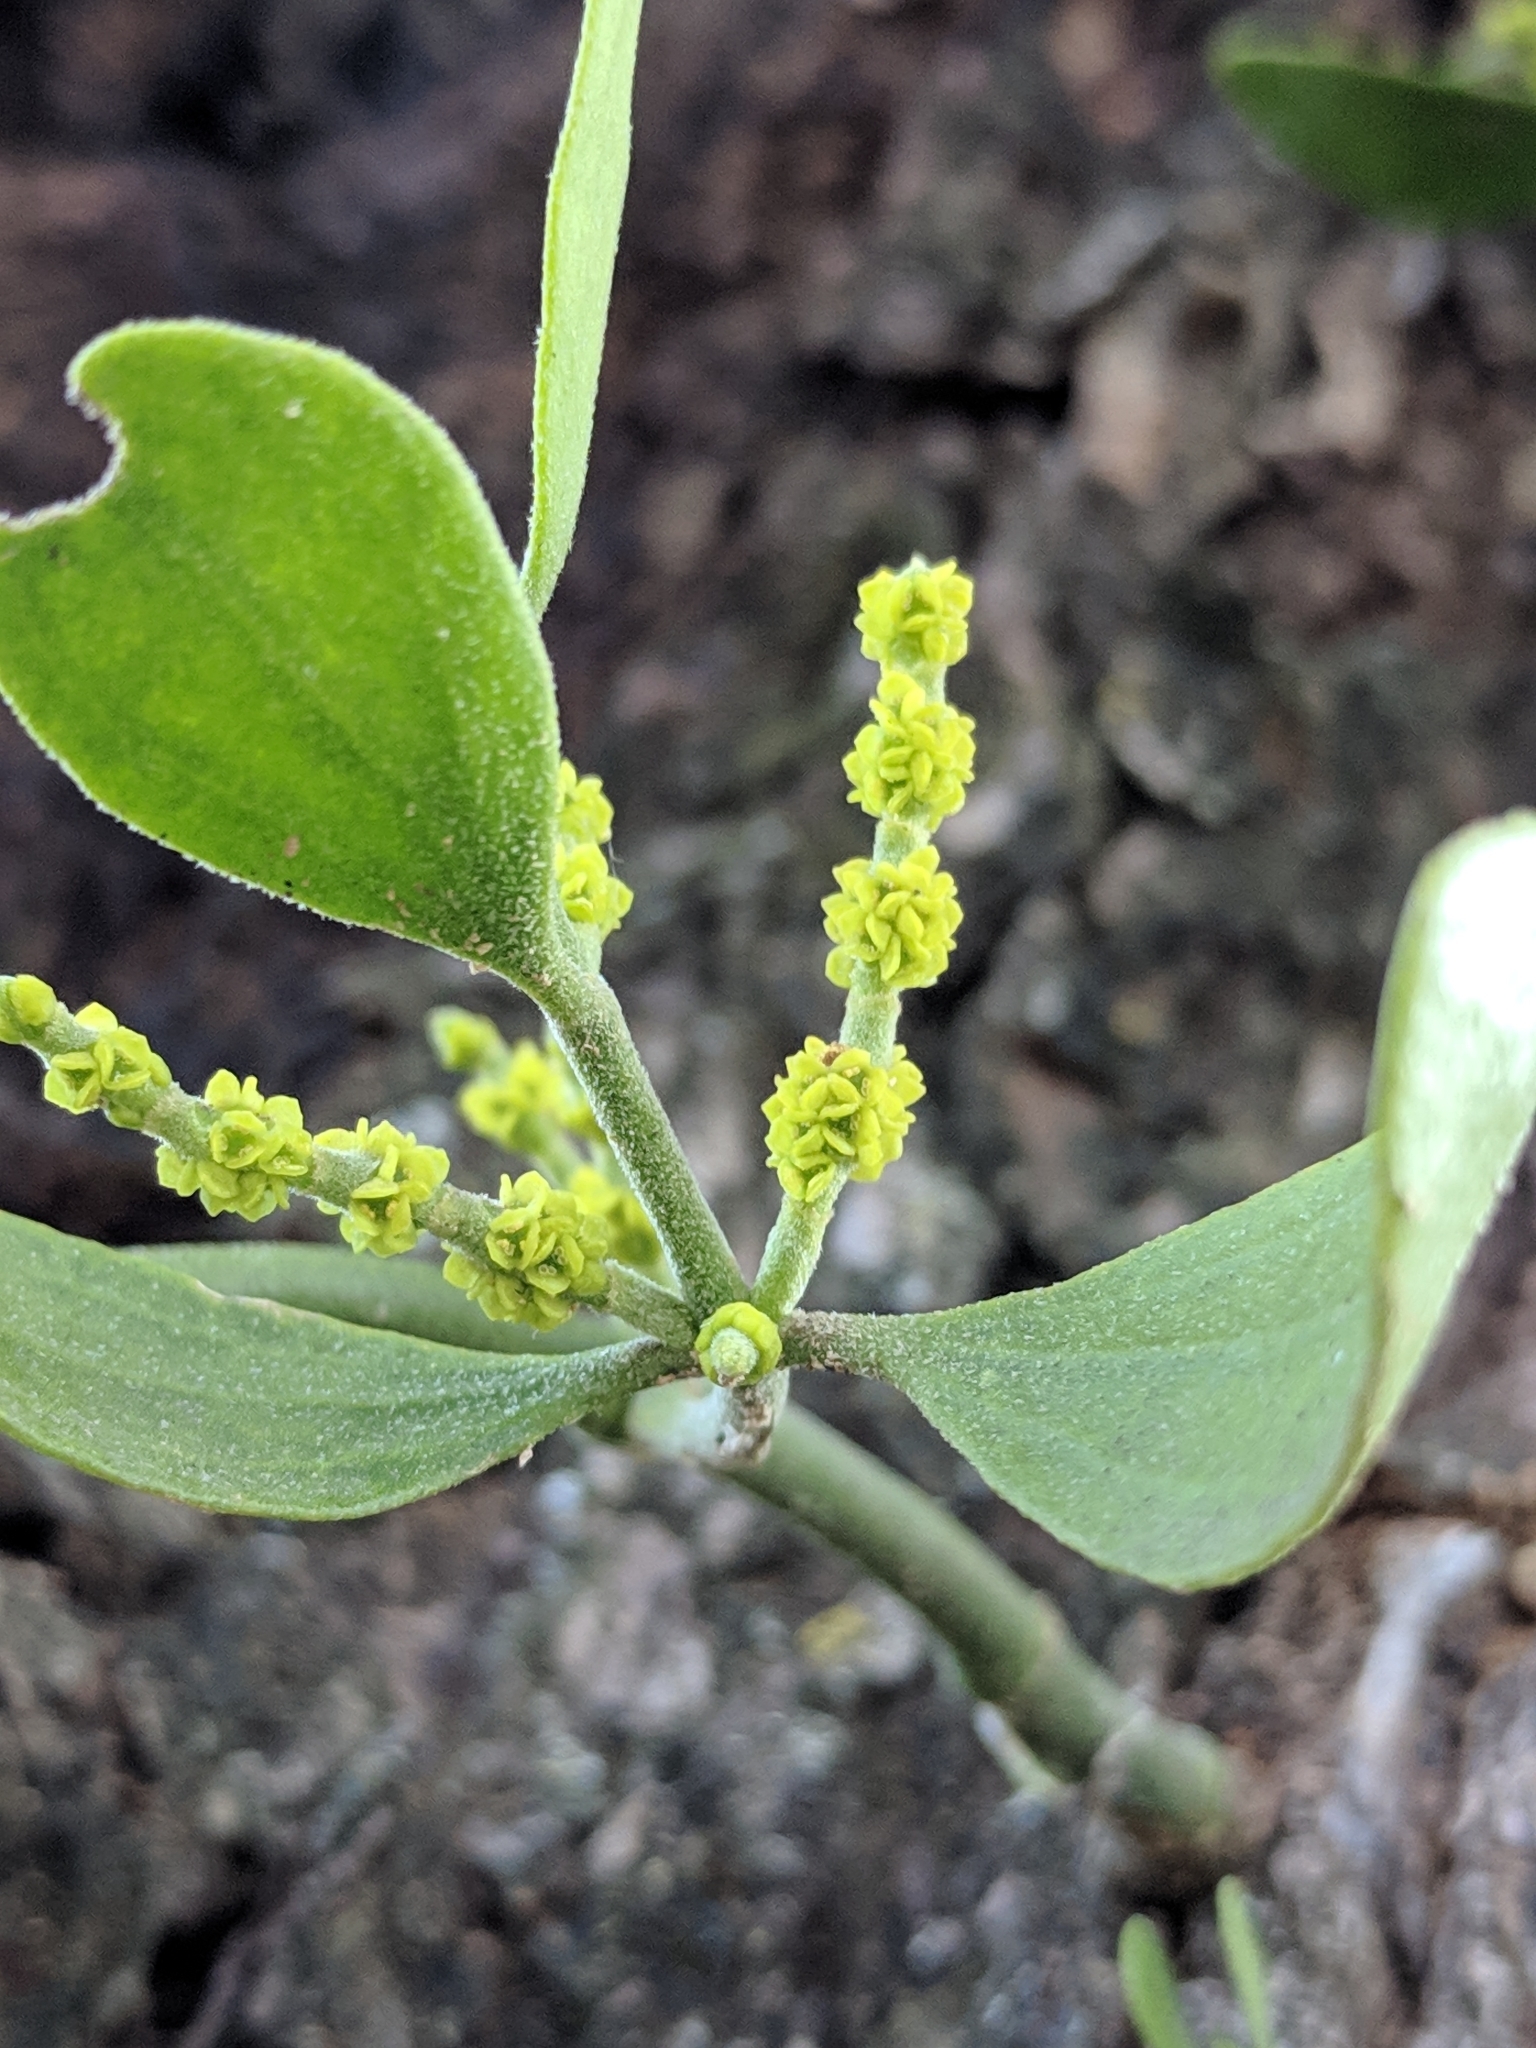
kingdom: Plantae
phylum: Tracheophyta
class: Magnoliopsida
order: Santalales
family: Viscaceae
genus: Phoradendron
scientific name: Phoradendron leucarpum
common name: Pacific mistletoe
